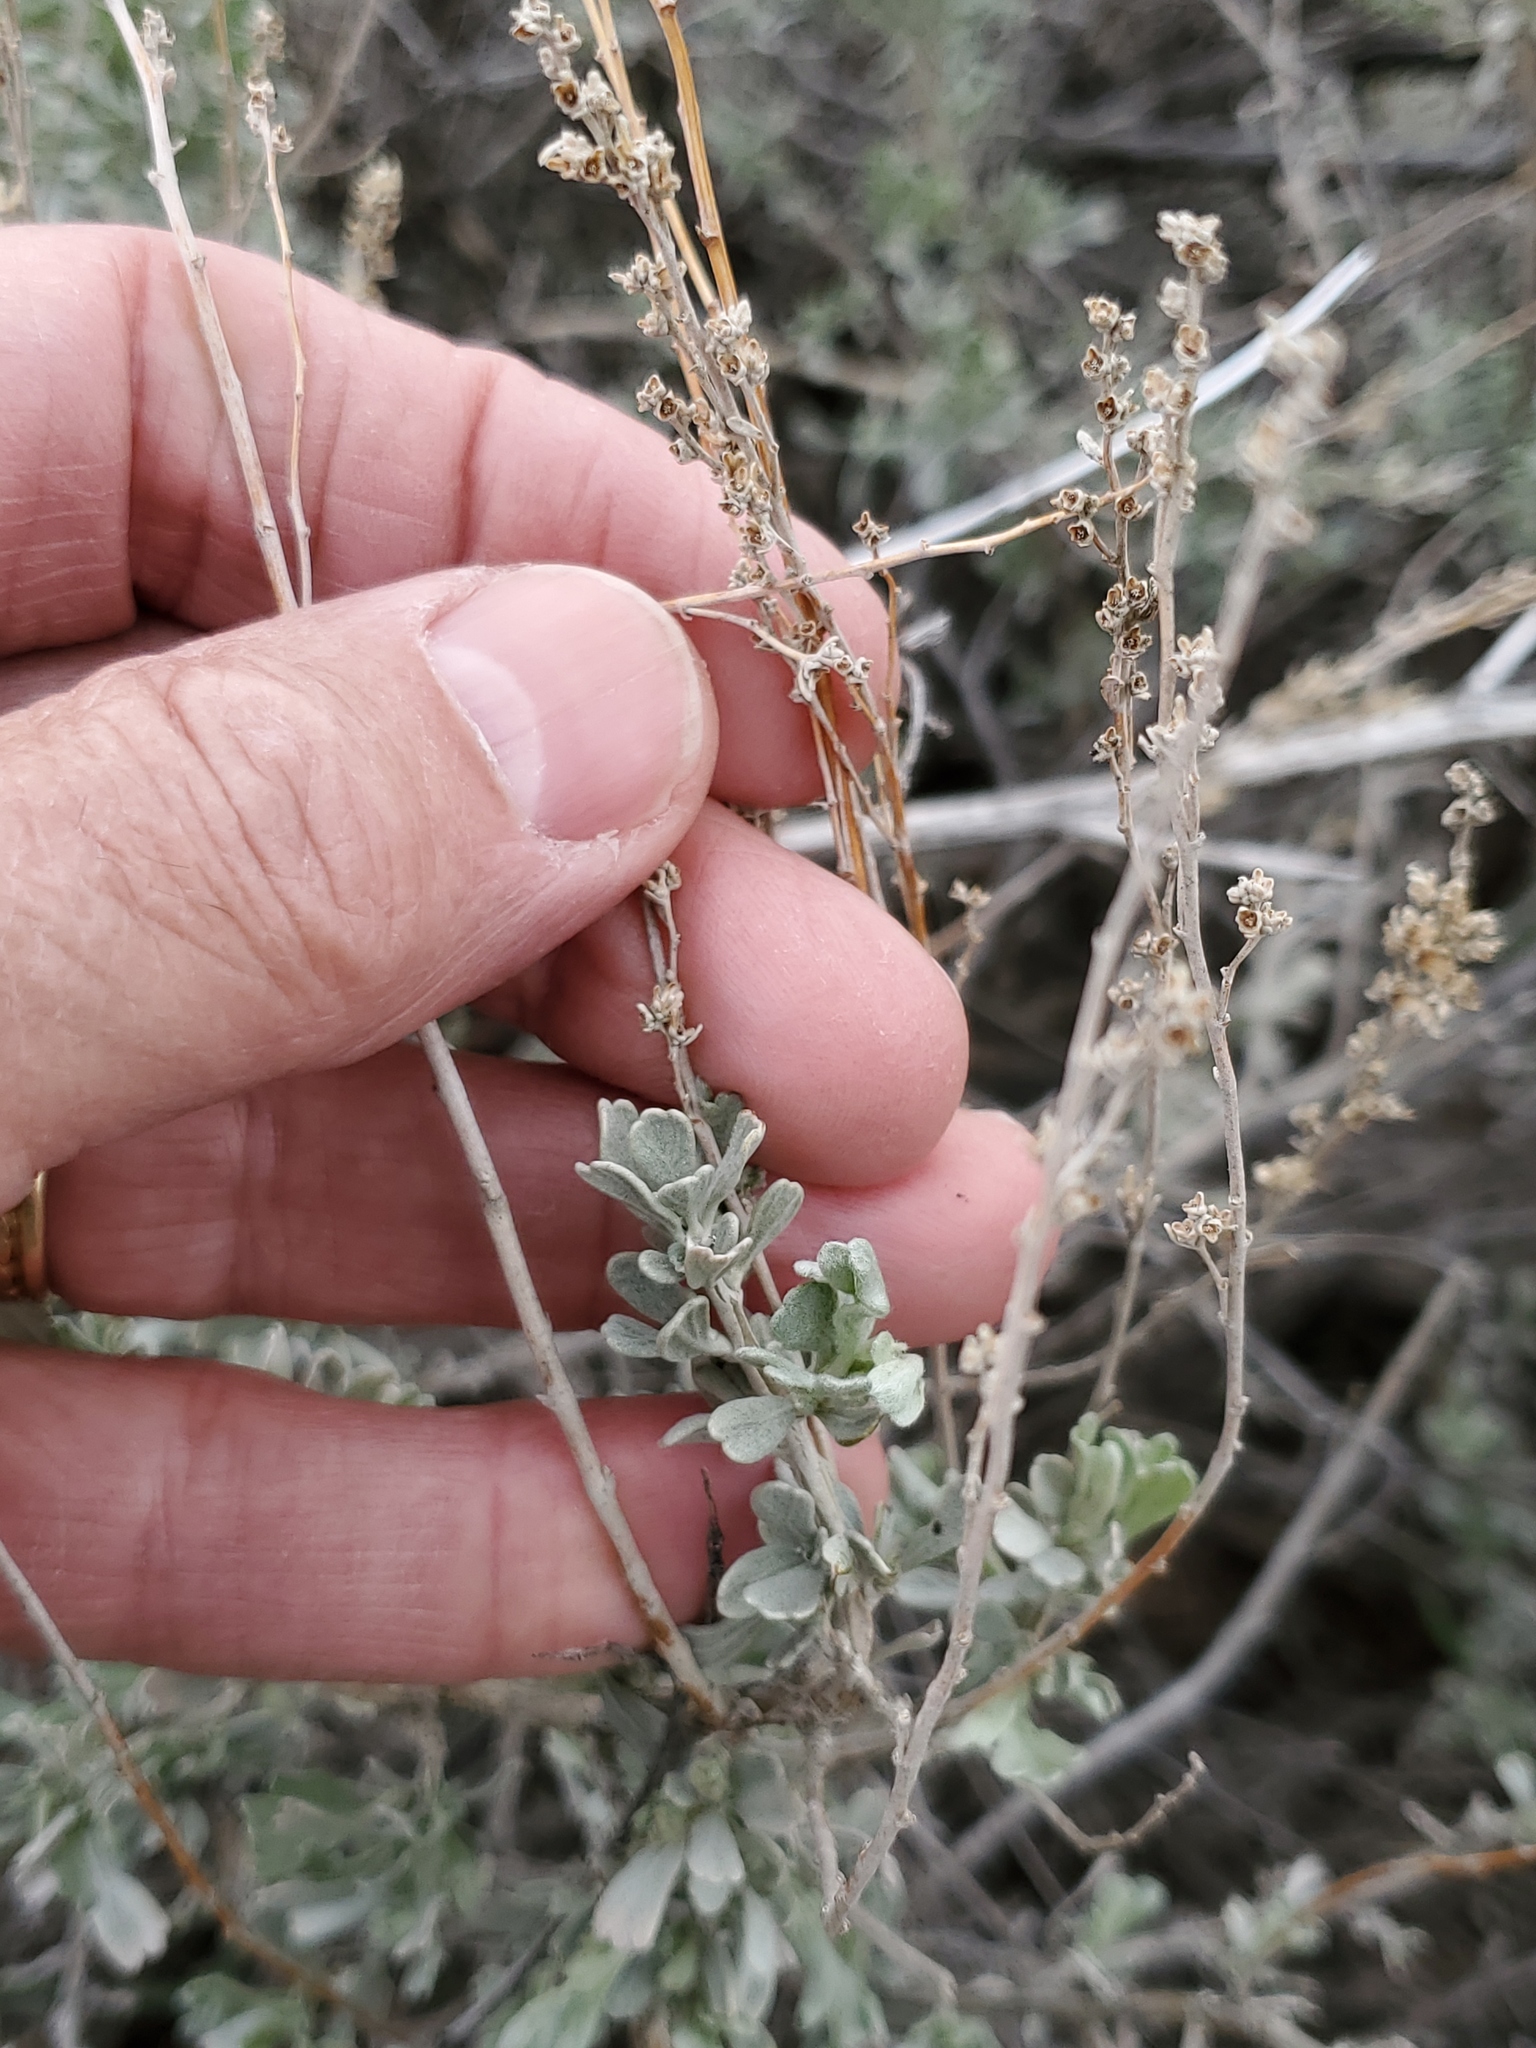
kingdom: Plantae
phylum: Tracheophyta
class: Magnoliopsida
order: Asterales
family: Asteraceae
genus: Artemisia
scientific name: Artemisia tridentata
